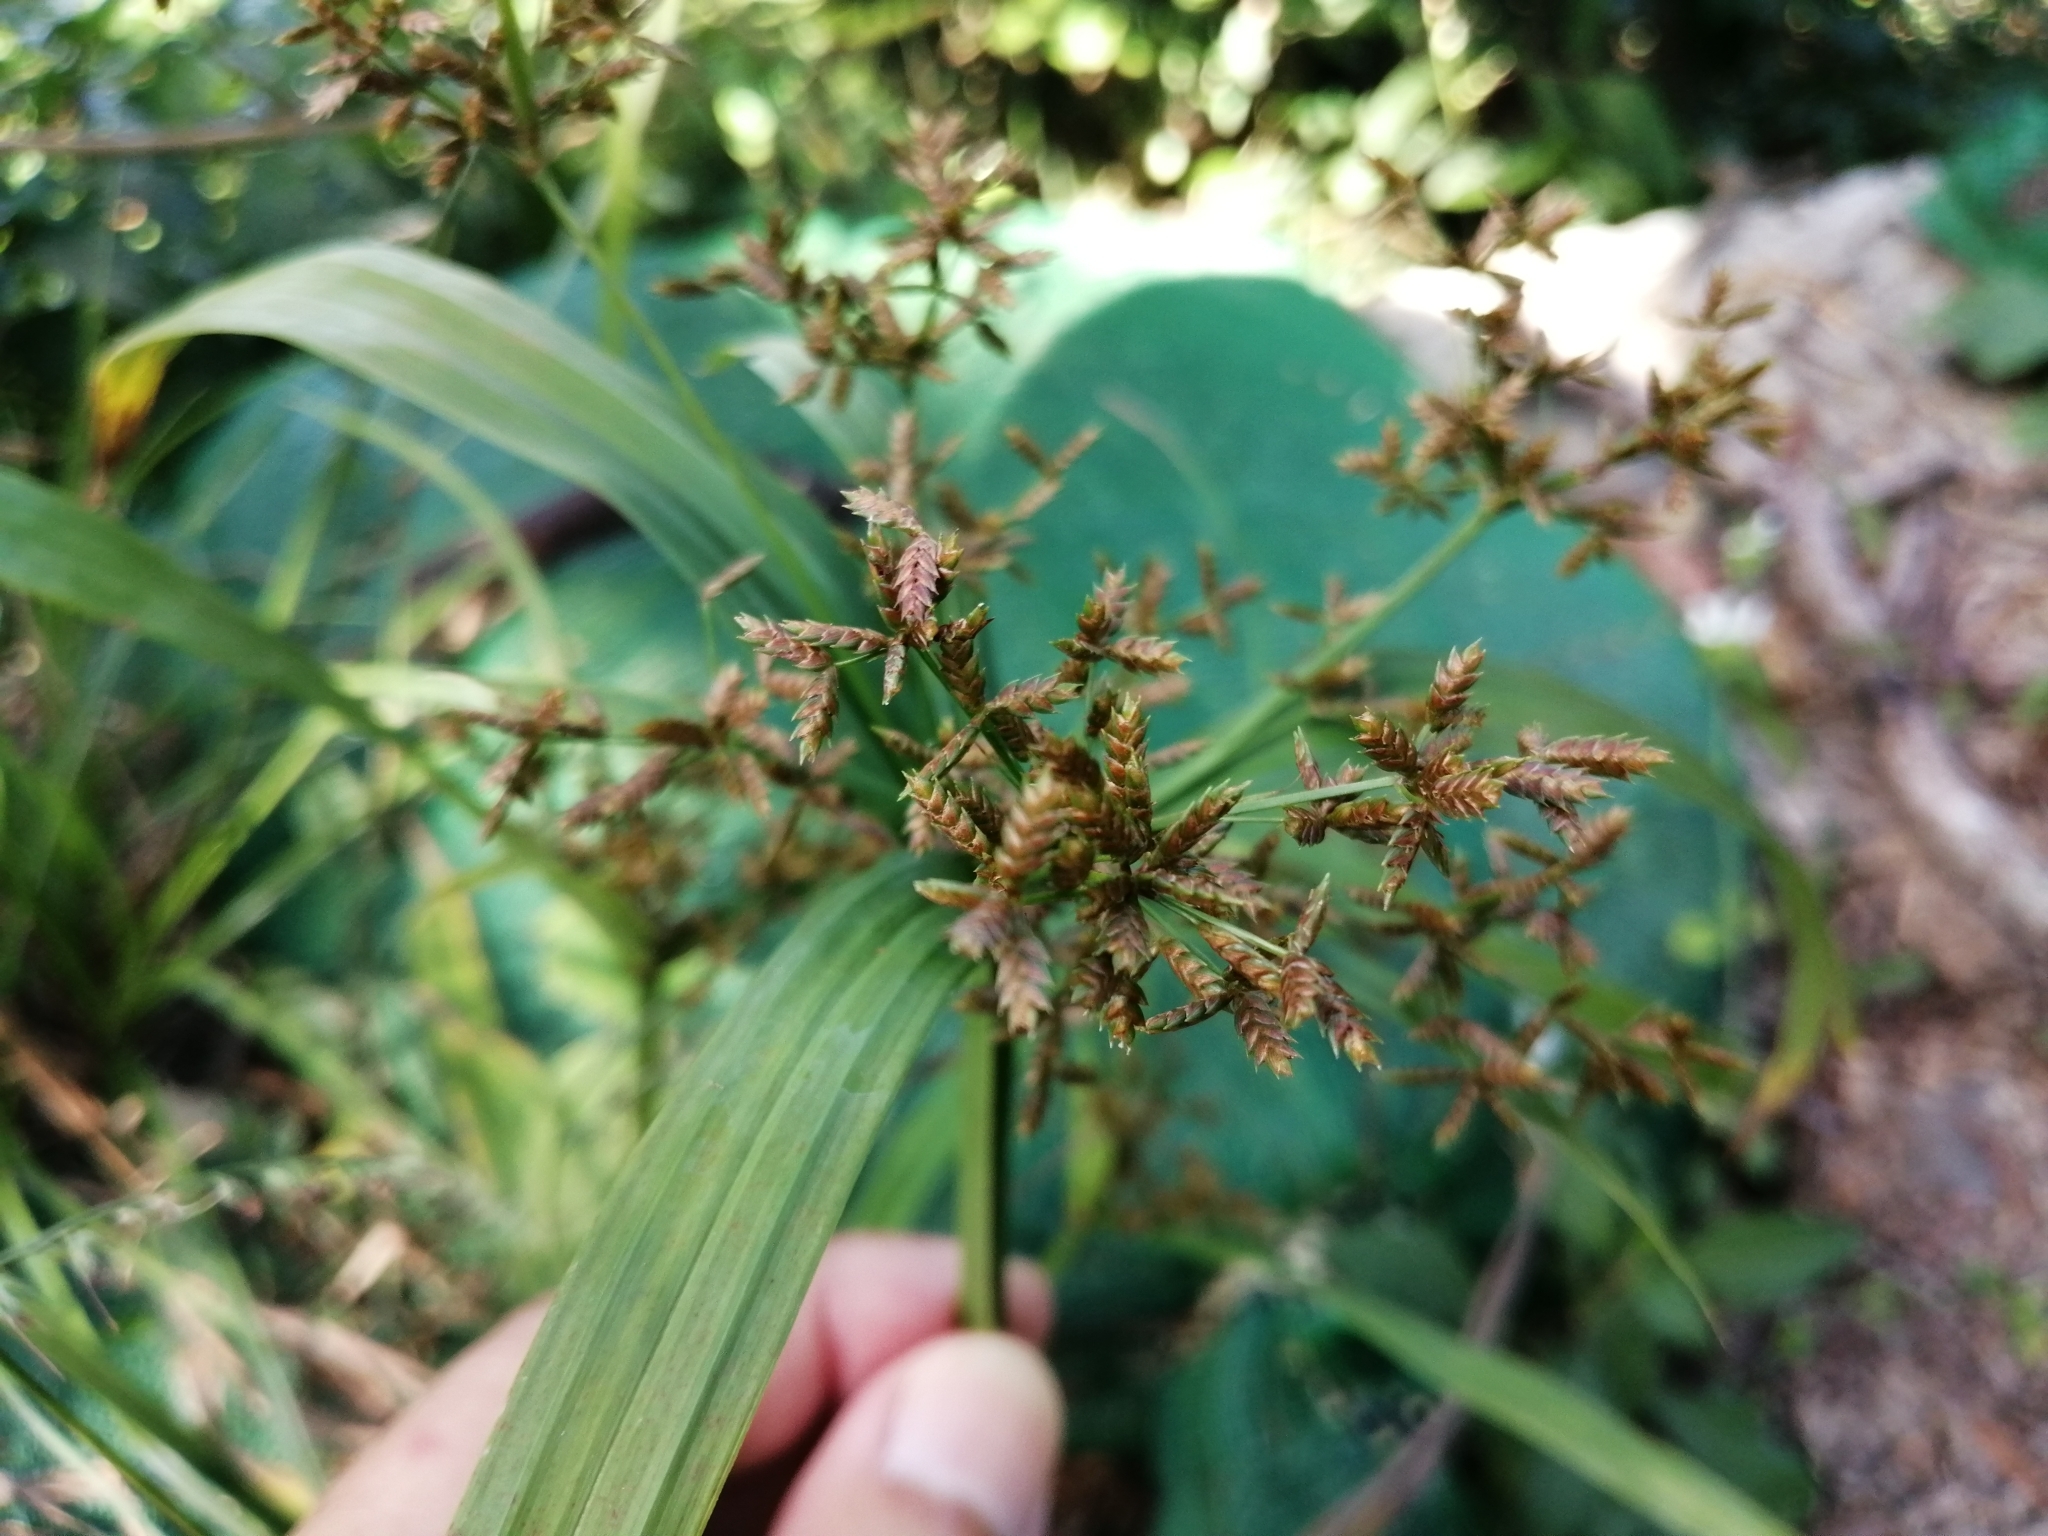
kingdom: Plantae
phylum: Tracheophyta
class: Liliopsida
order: Poales
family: Cyperaceae
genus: Cyperus
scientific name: Cyperus diffusus
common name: Dwarf umbrella grass
